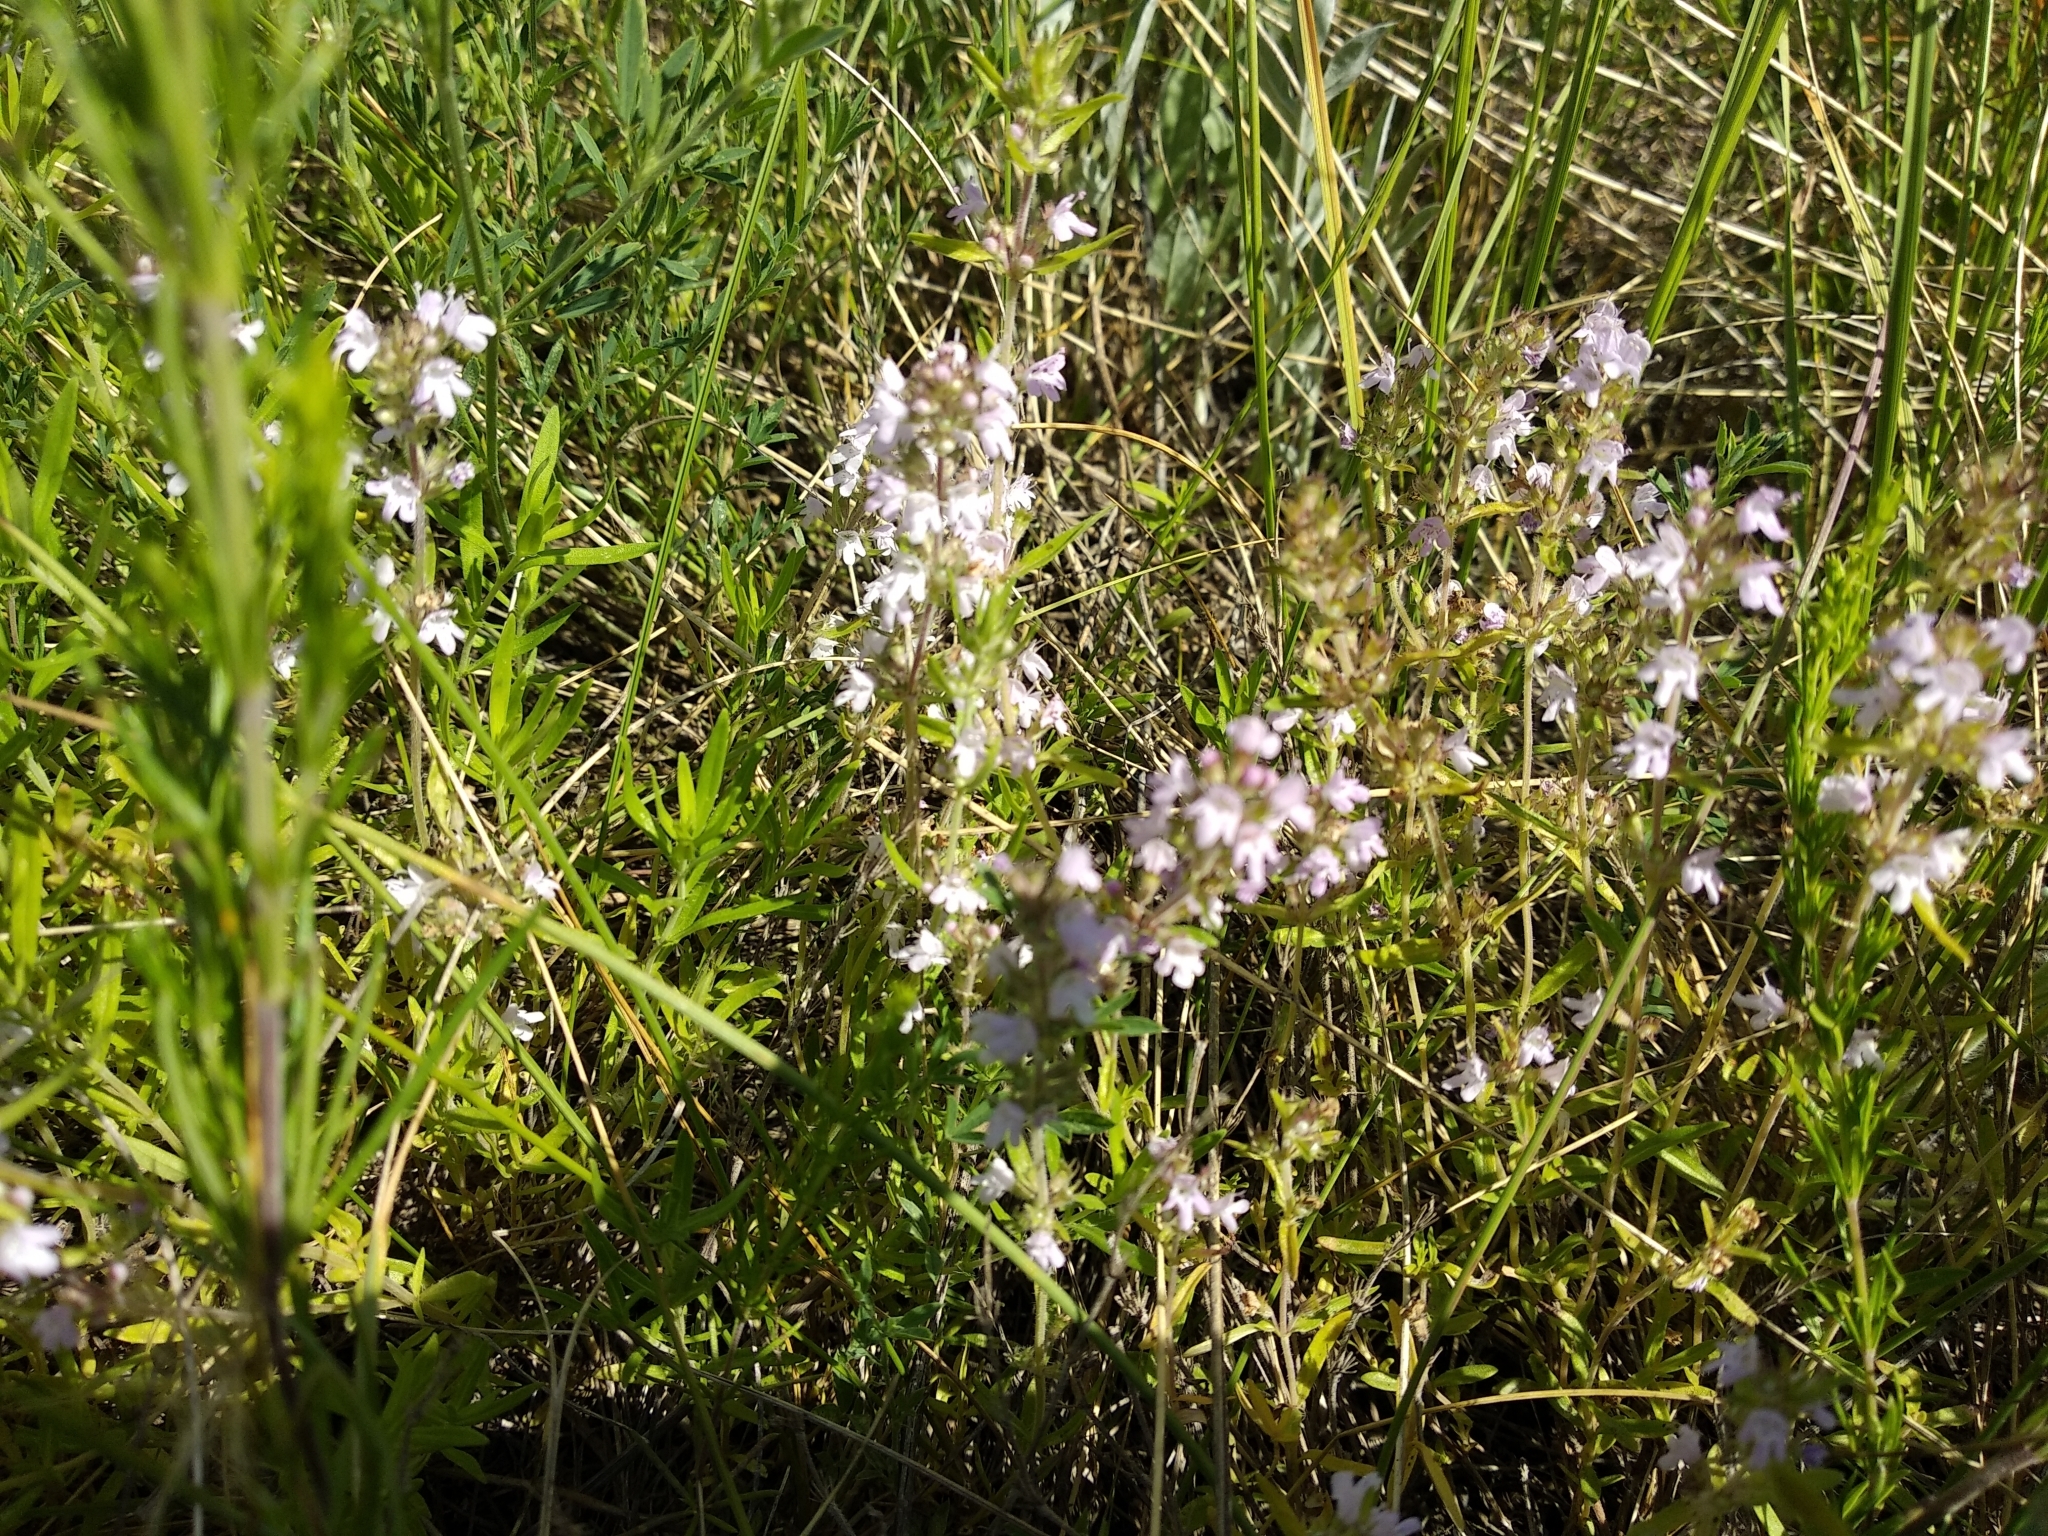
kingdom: Plantae
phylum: Tracheophyta
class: Magnoliopsida
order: Lamiales
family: Lamiaceae
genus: Thymus
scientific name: Thymus pannonicus
